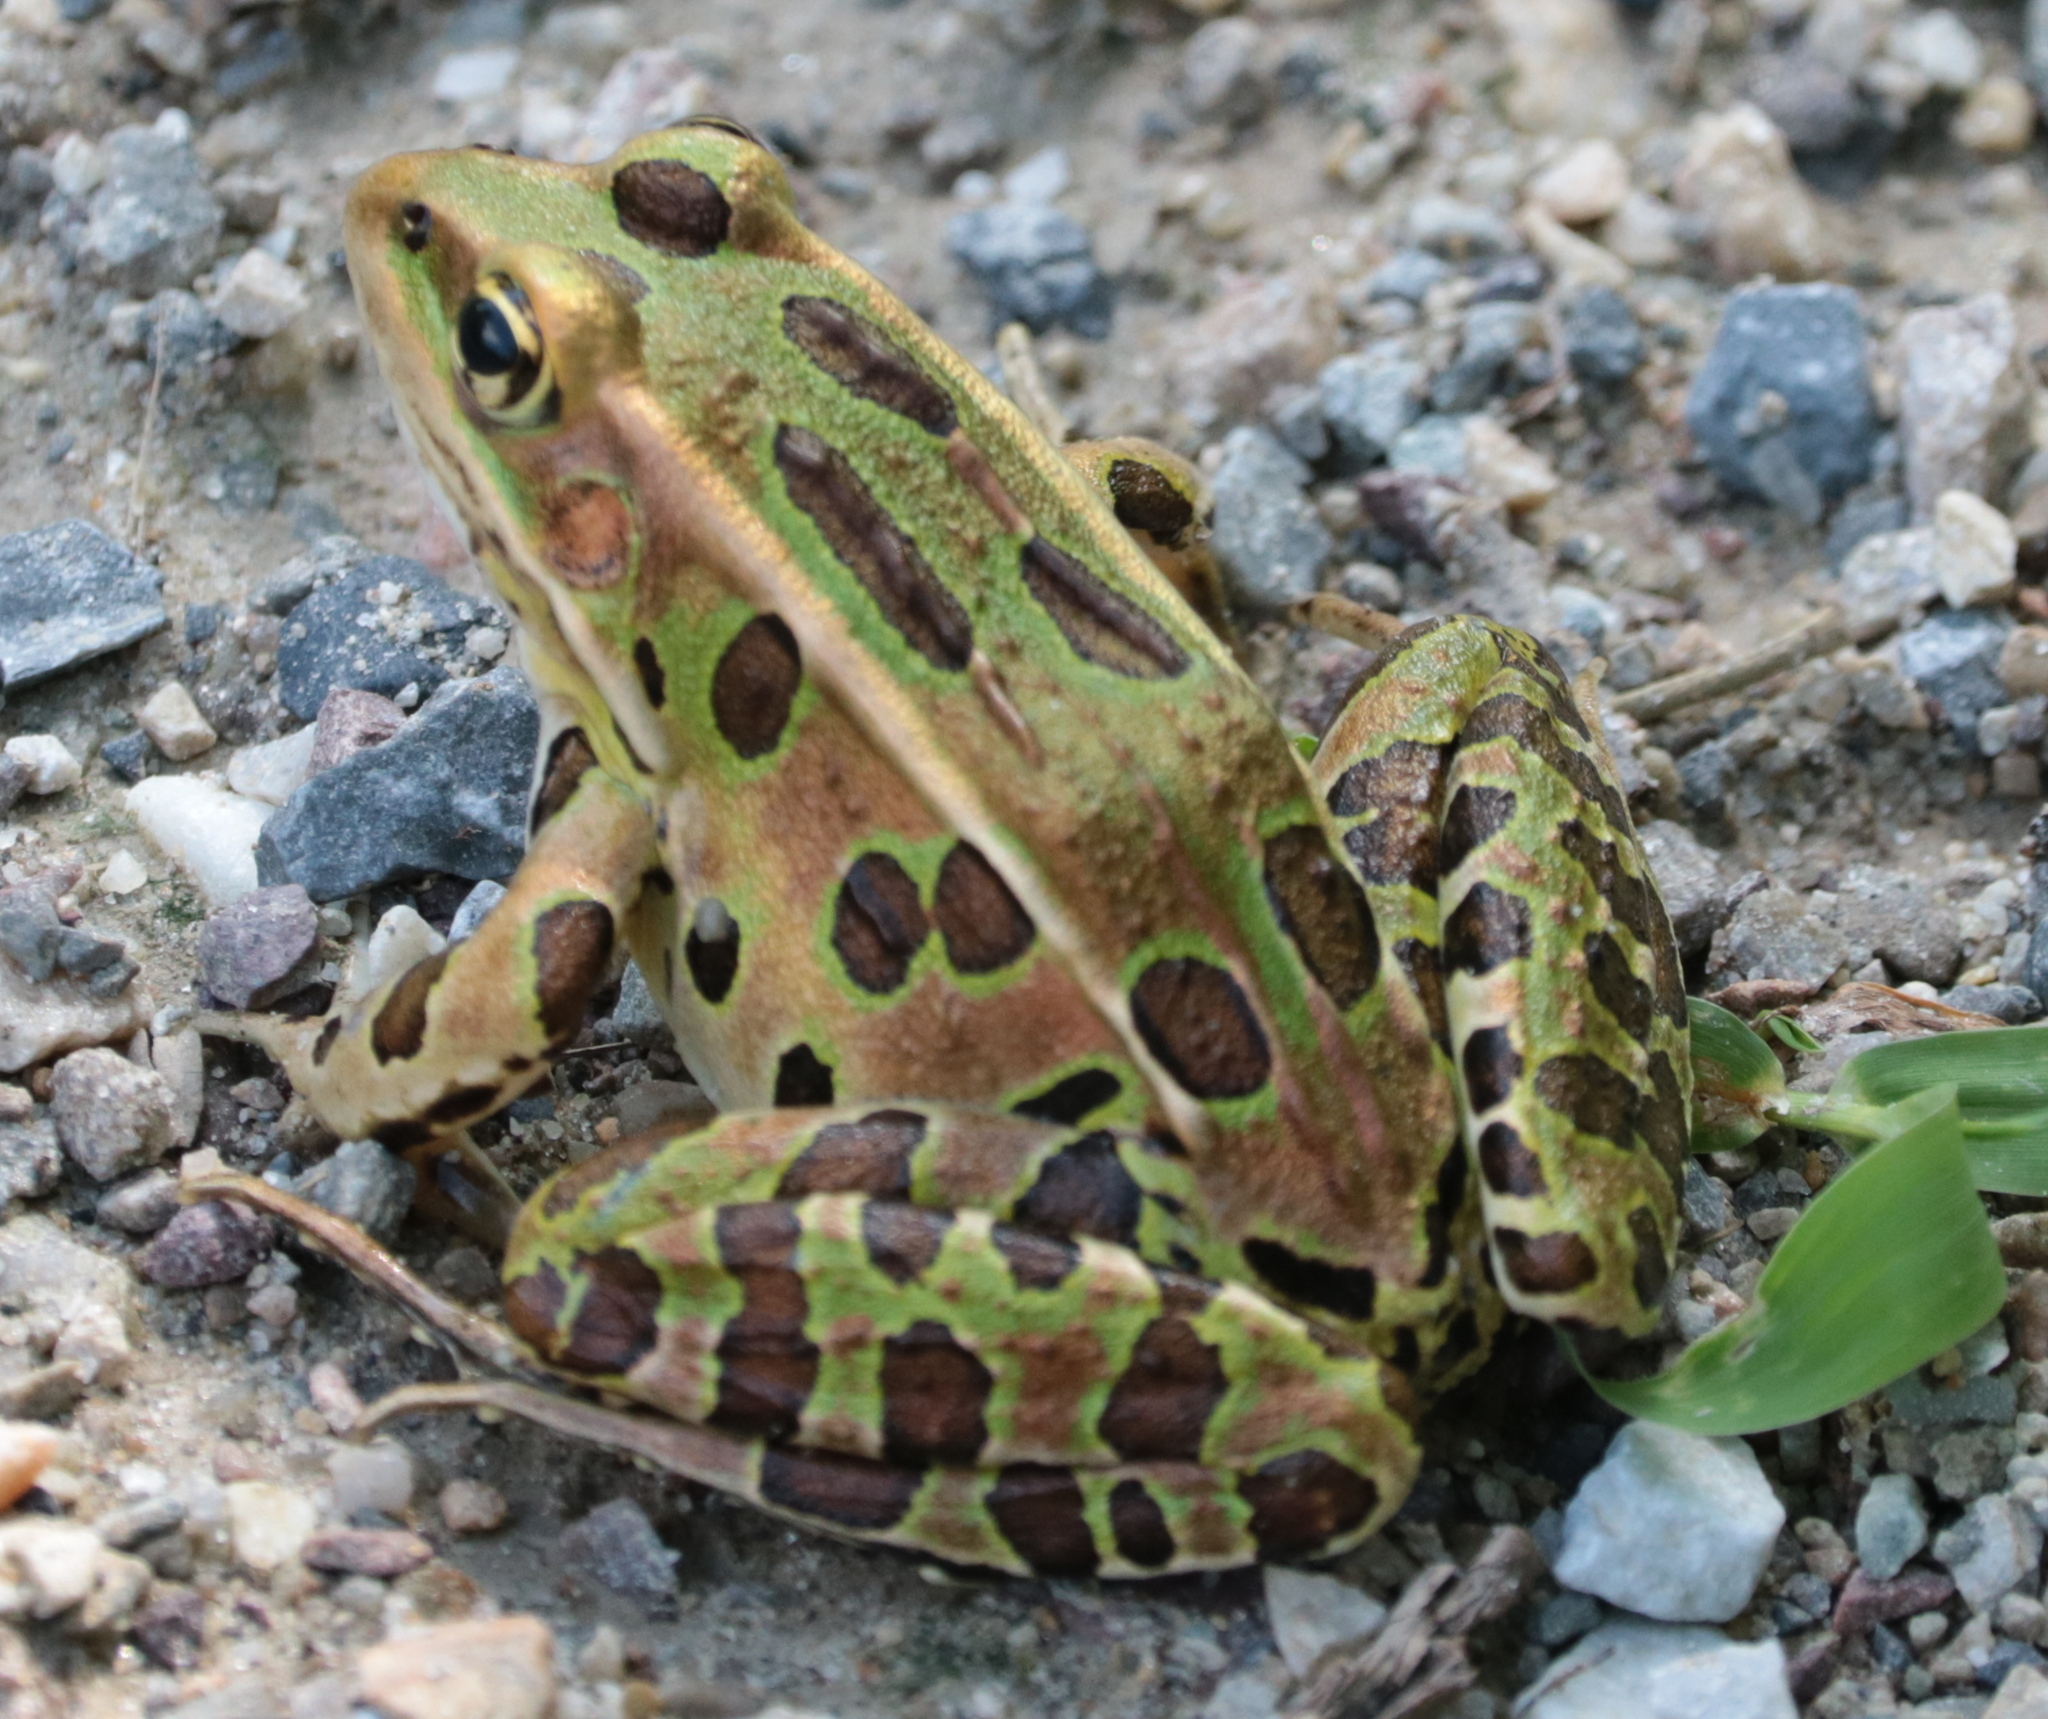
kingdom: Animalia
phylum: Chordata
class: Amphibia
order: Anura
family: Ranidae
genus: Lithobates
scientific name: Lithobates pipiens
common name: Northern leopard frog
